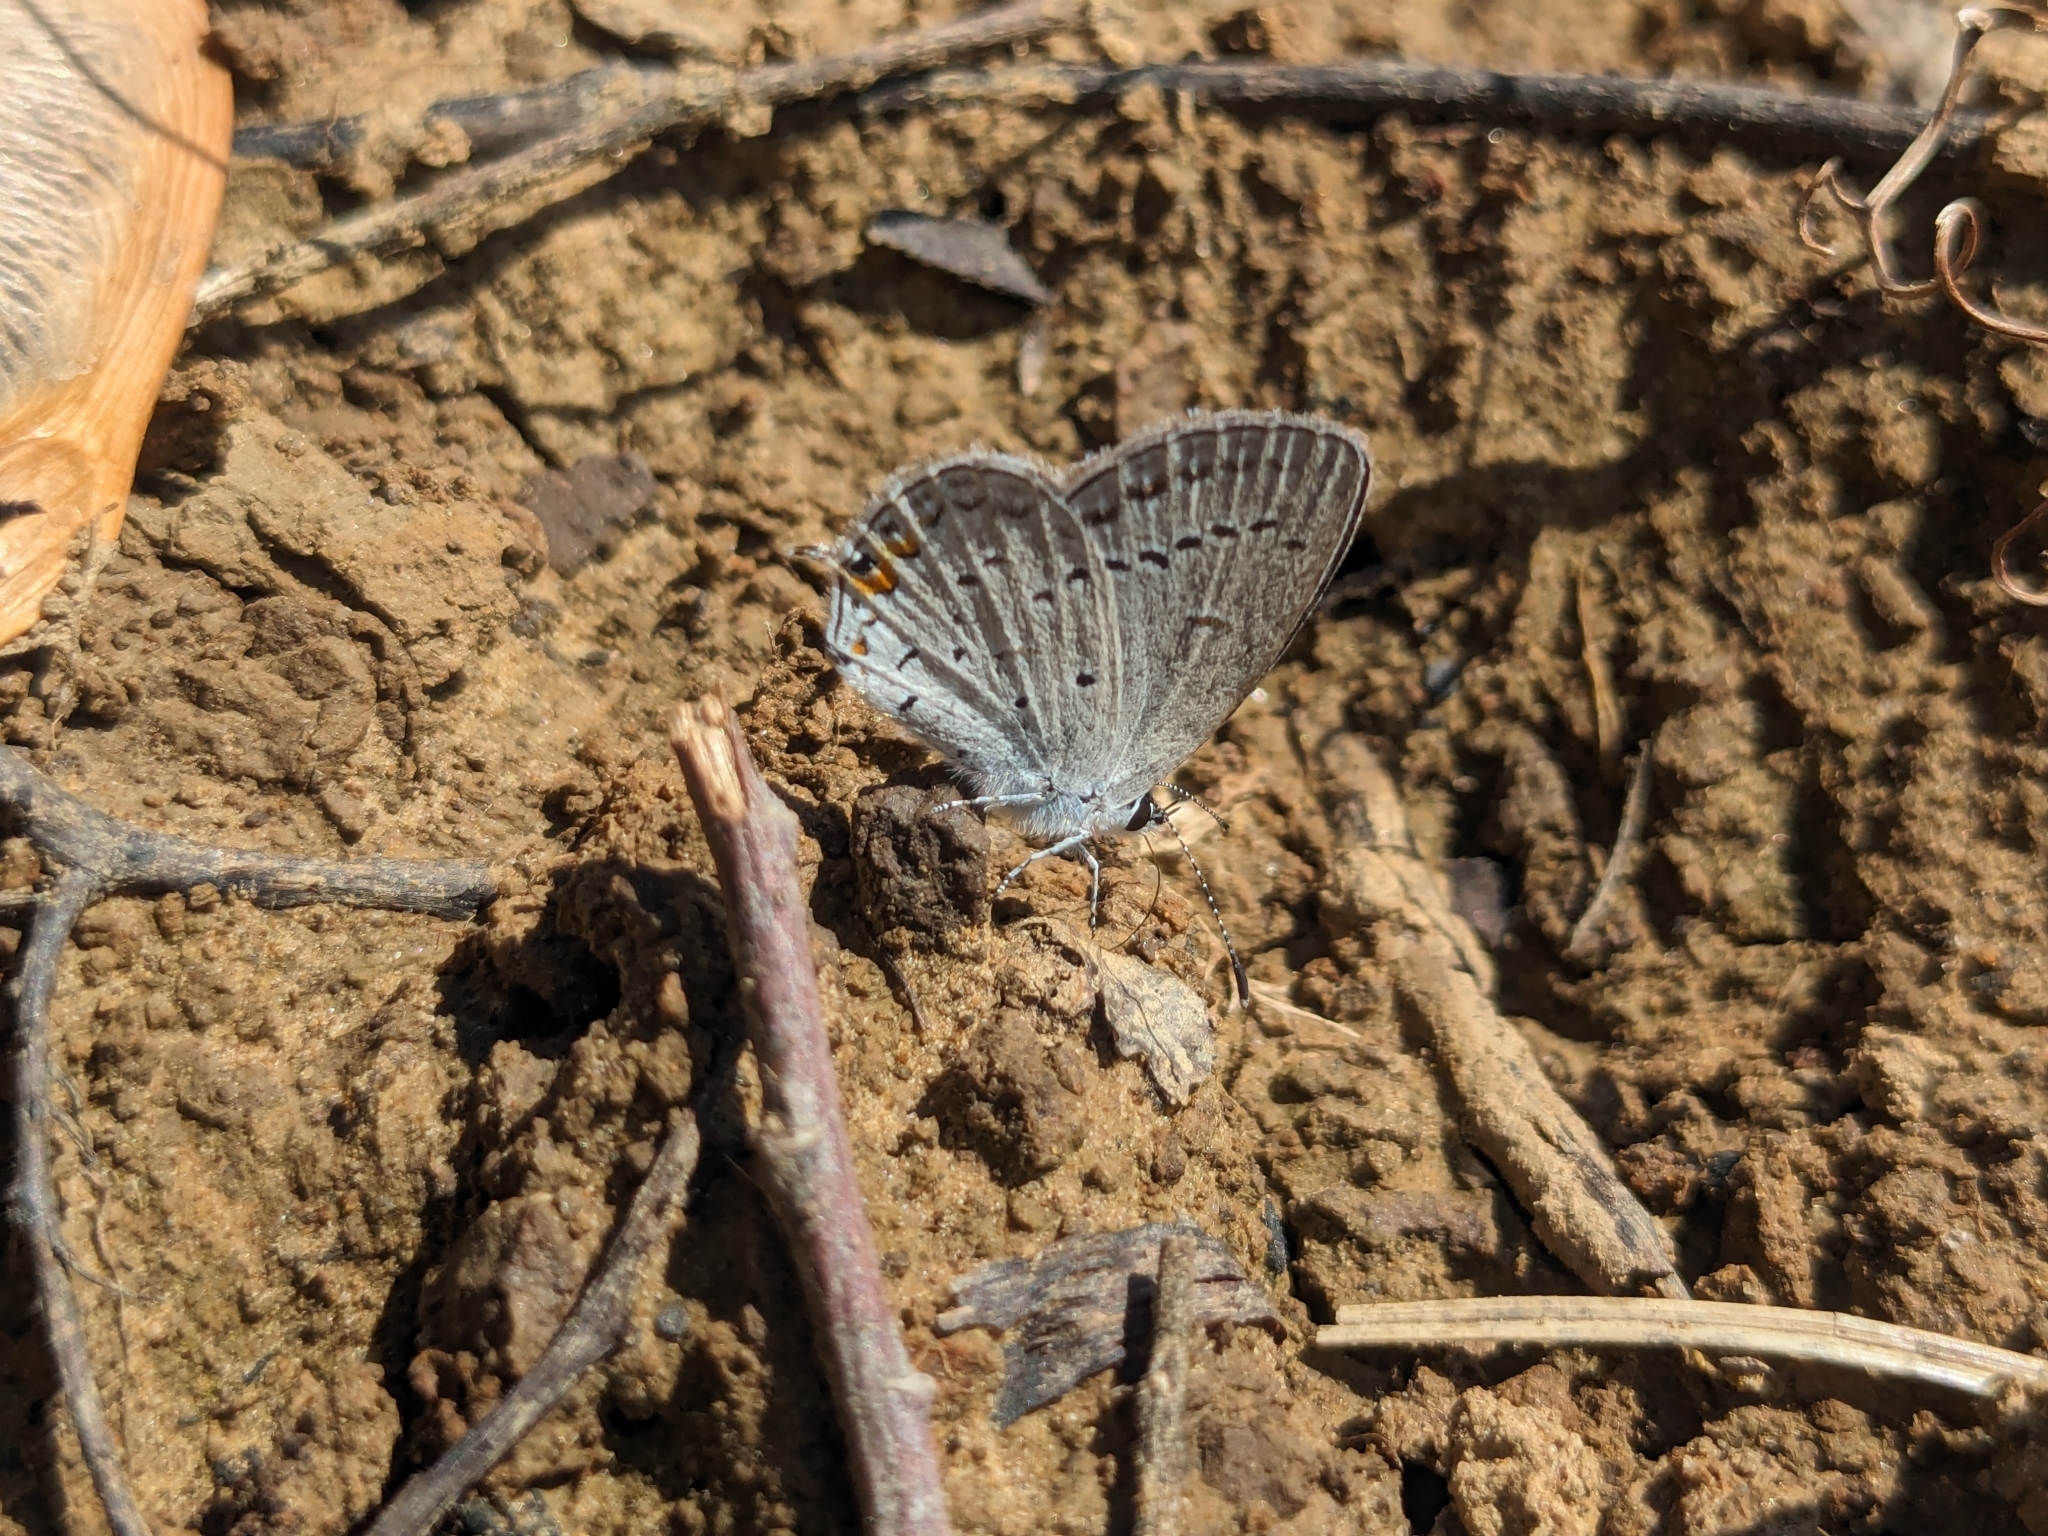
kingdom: Animalia
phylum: Arthropoda
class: Insecta
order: Lepidoptera
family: Lycaenidae
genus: Elkalyce
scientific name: Elkalyce comyntas
